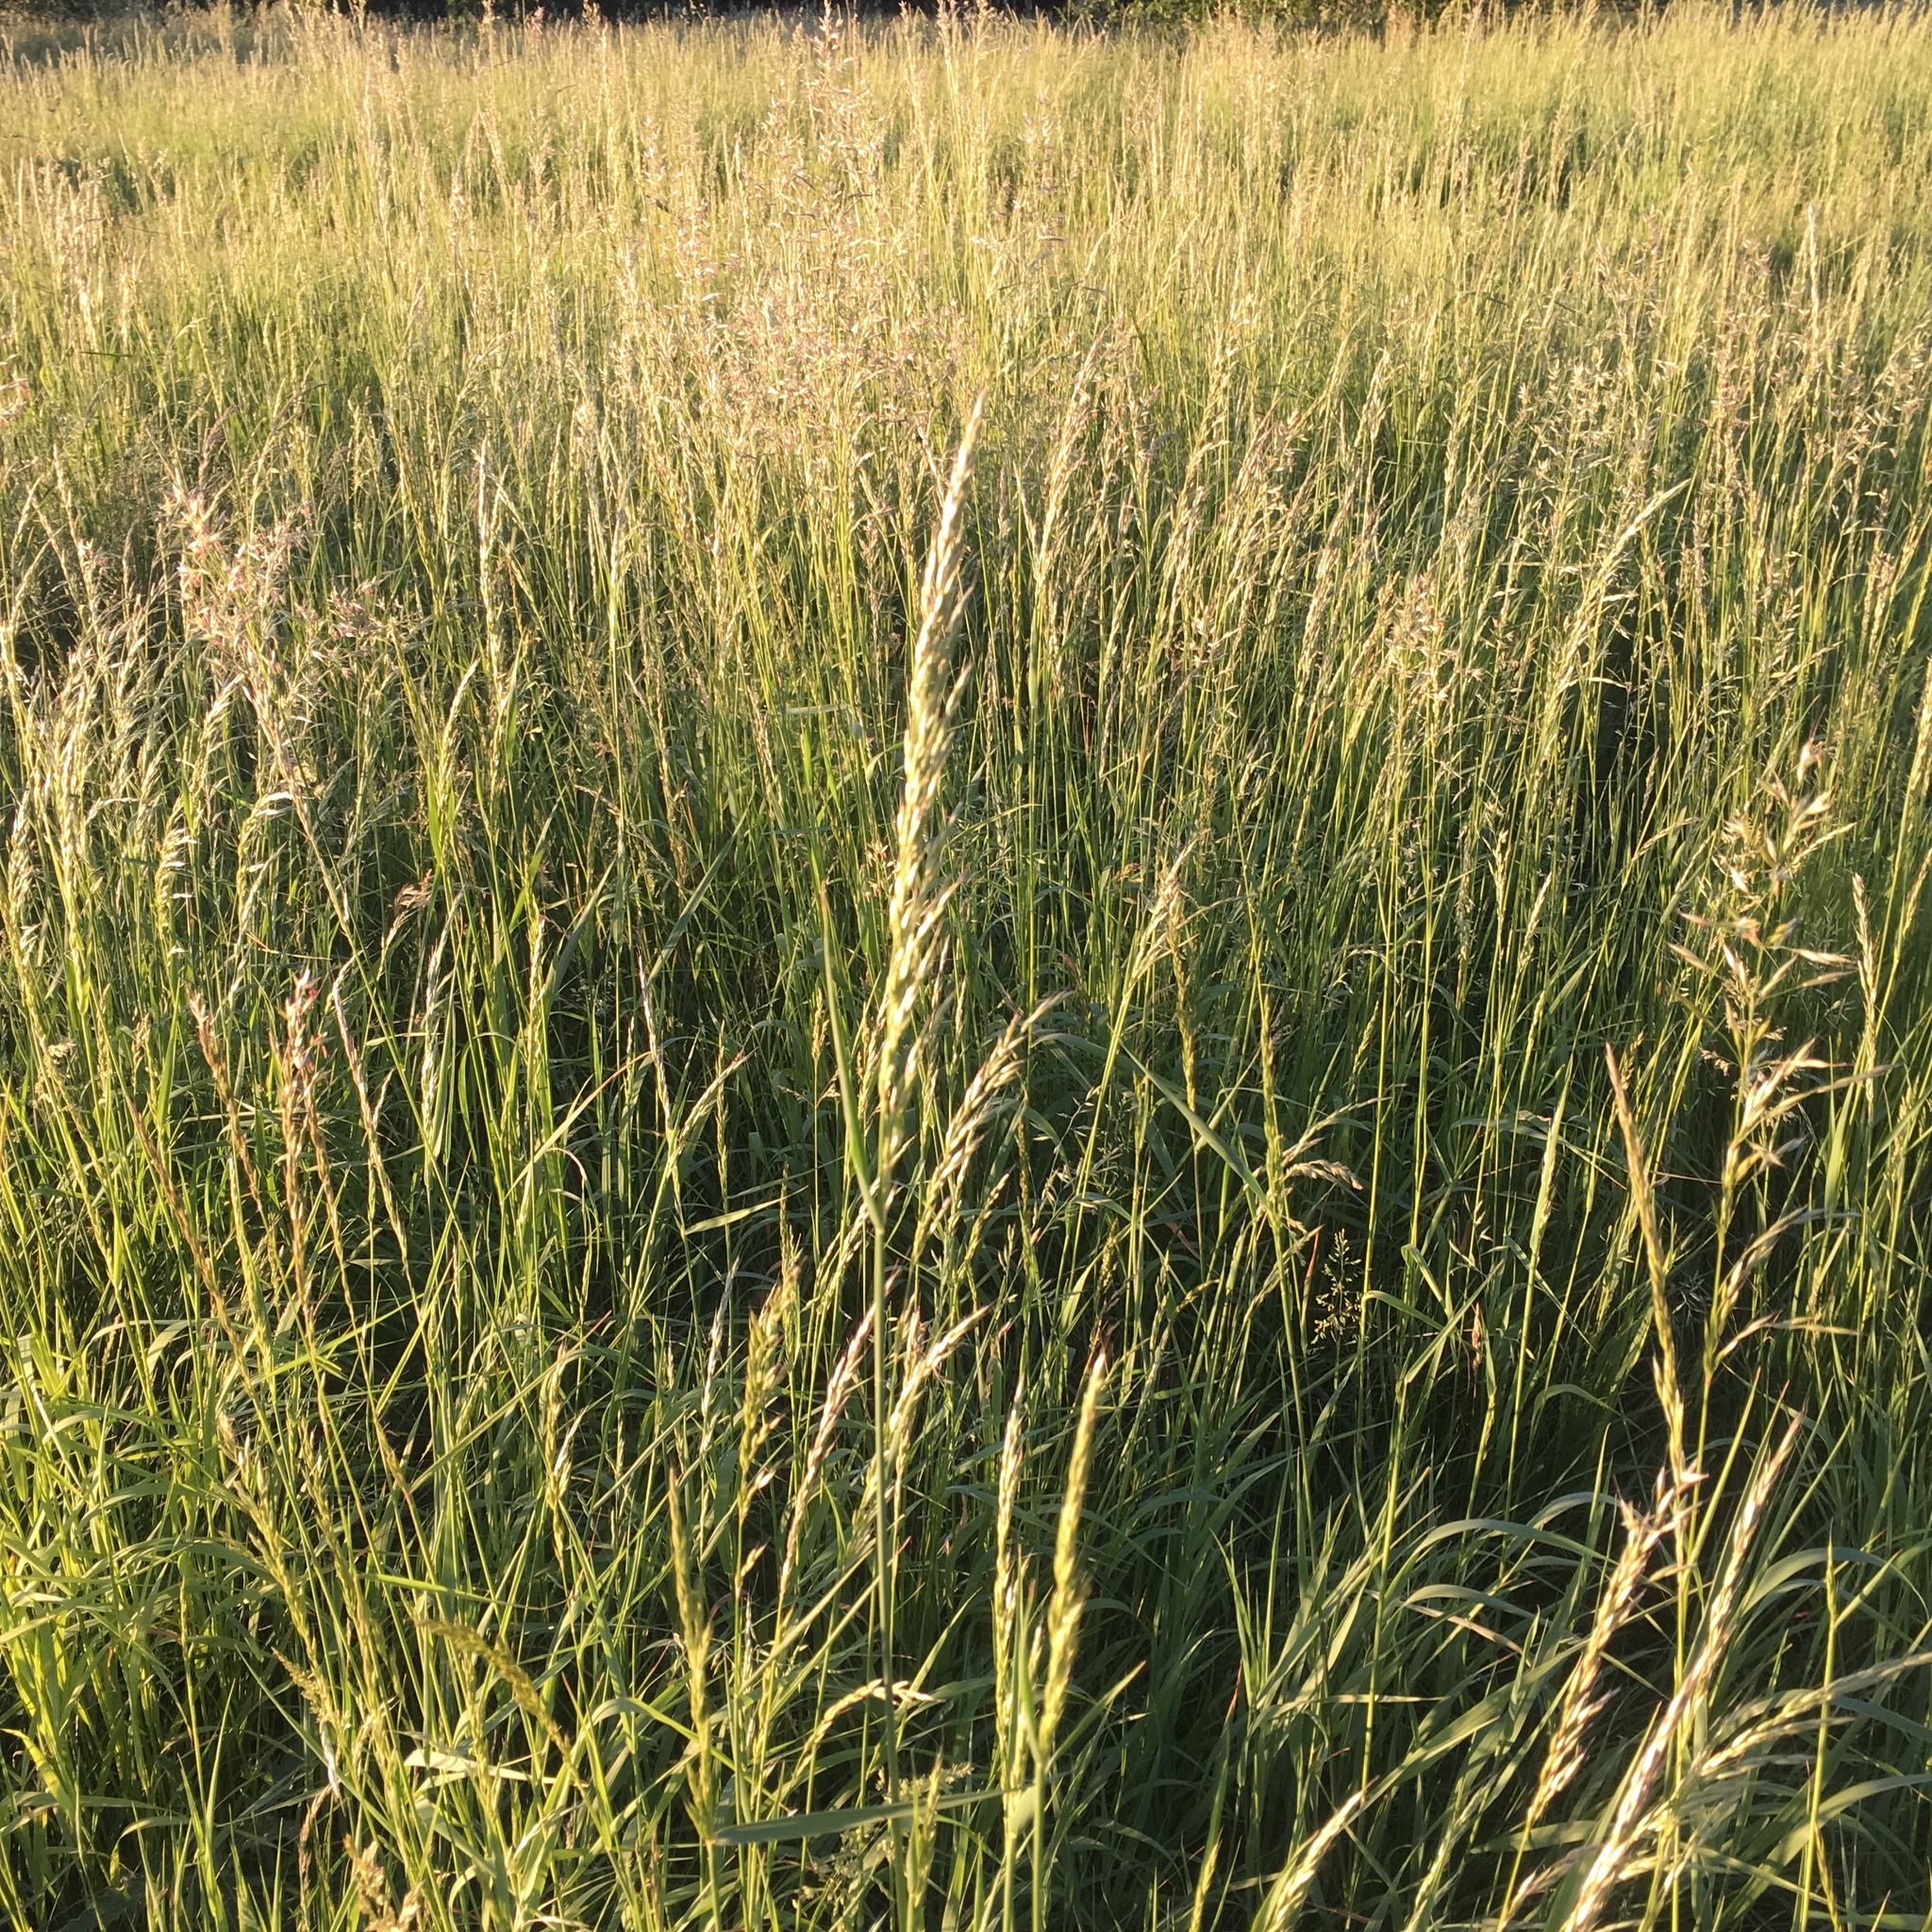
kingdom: Plantae
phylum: Tracheophyta
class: Liliopsida
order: Poales
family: Poaceae
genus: Arrhenatherum
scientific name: Arrhenatherum elatius
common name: Tall oatgrass
